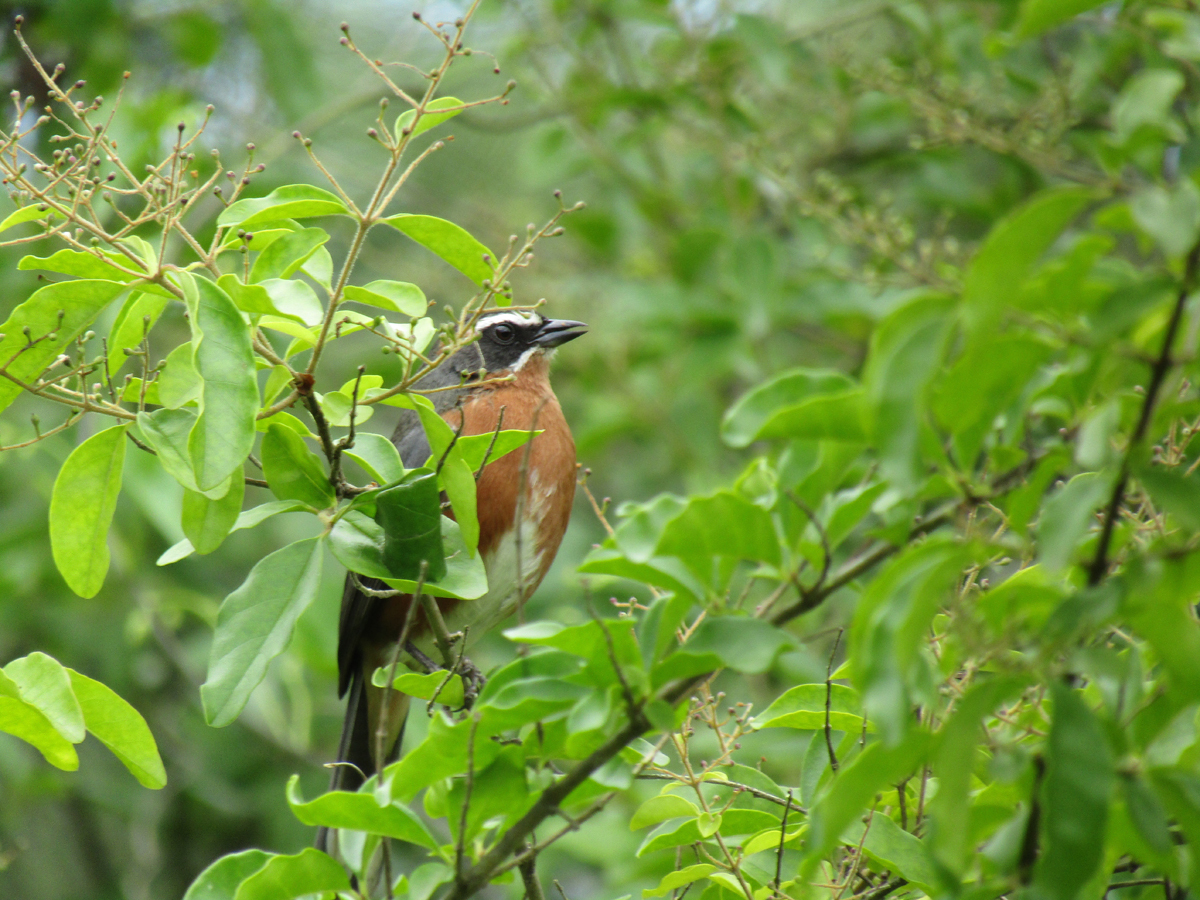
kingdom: Animalia
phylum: Chordata
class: Aves
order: Passeriformes
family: Thraupidae
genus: Poospiza
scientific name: Poospiza nigrorufa
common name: Black-and-rufous warbling finch
